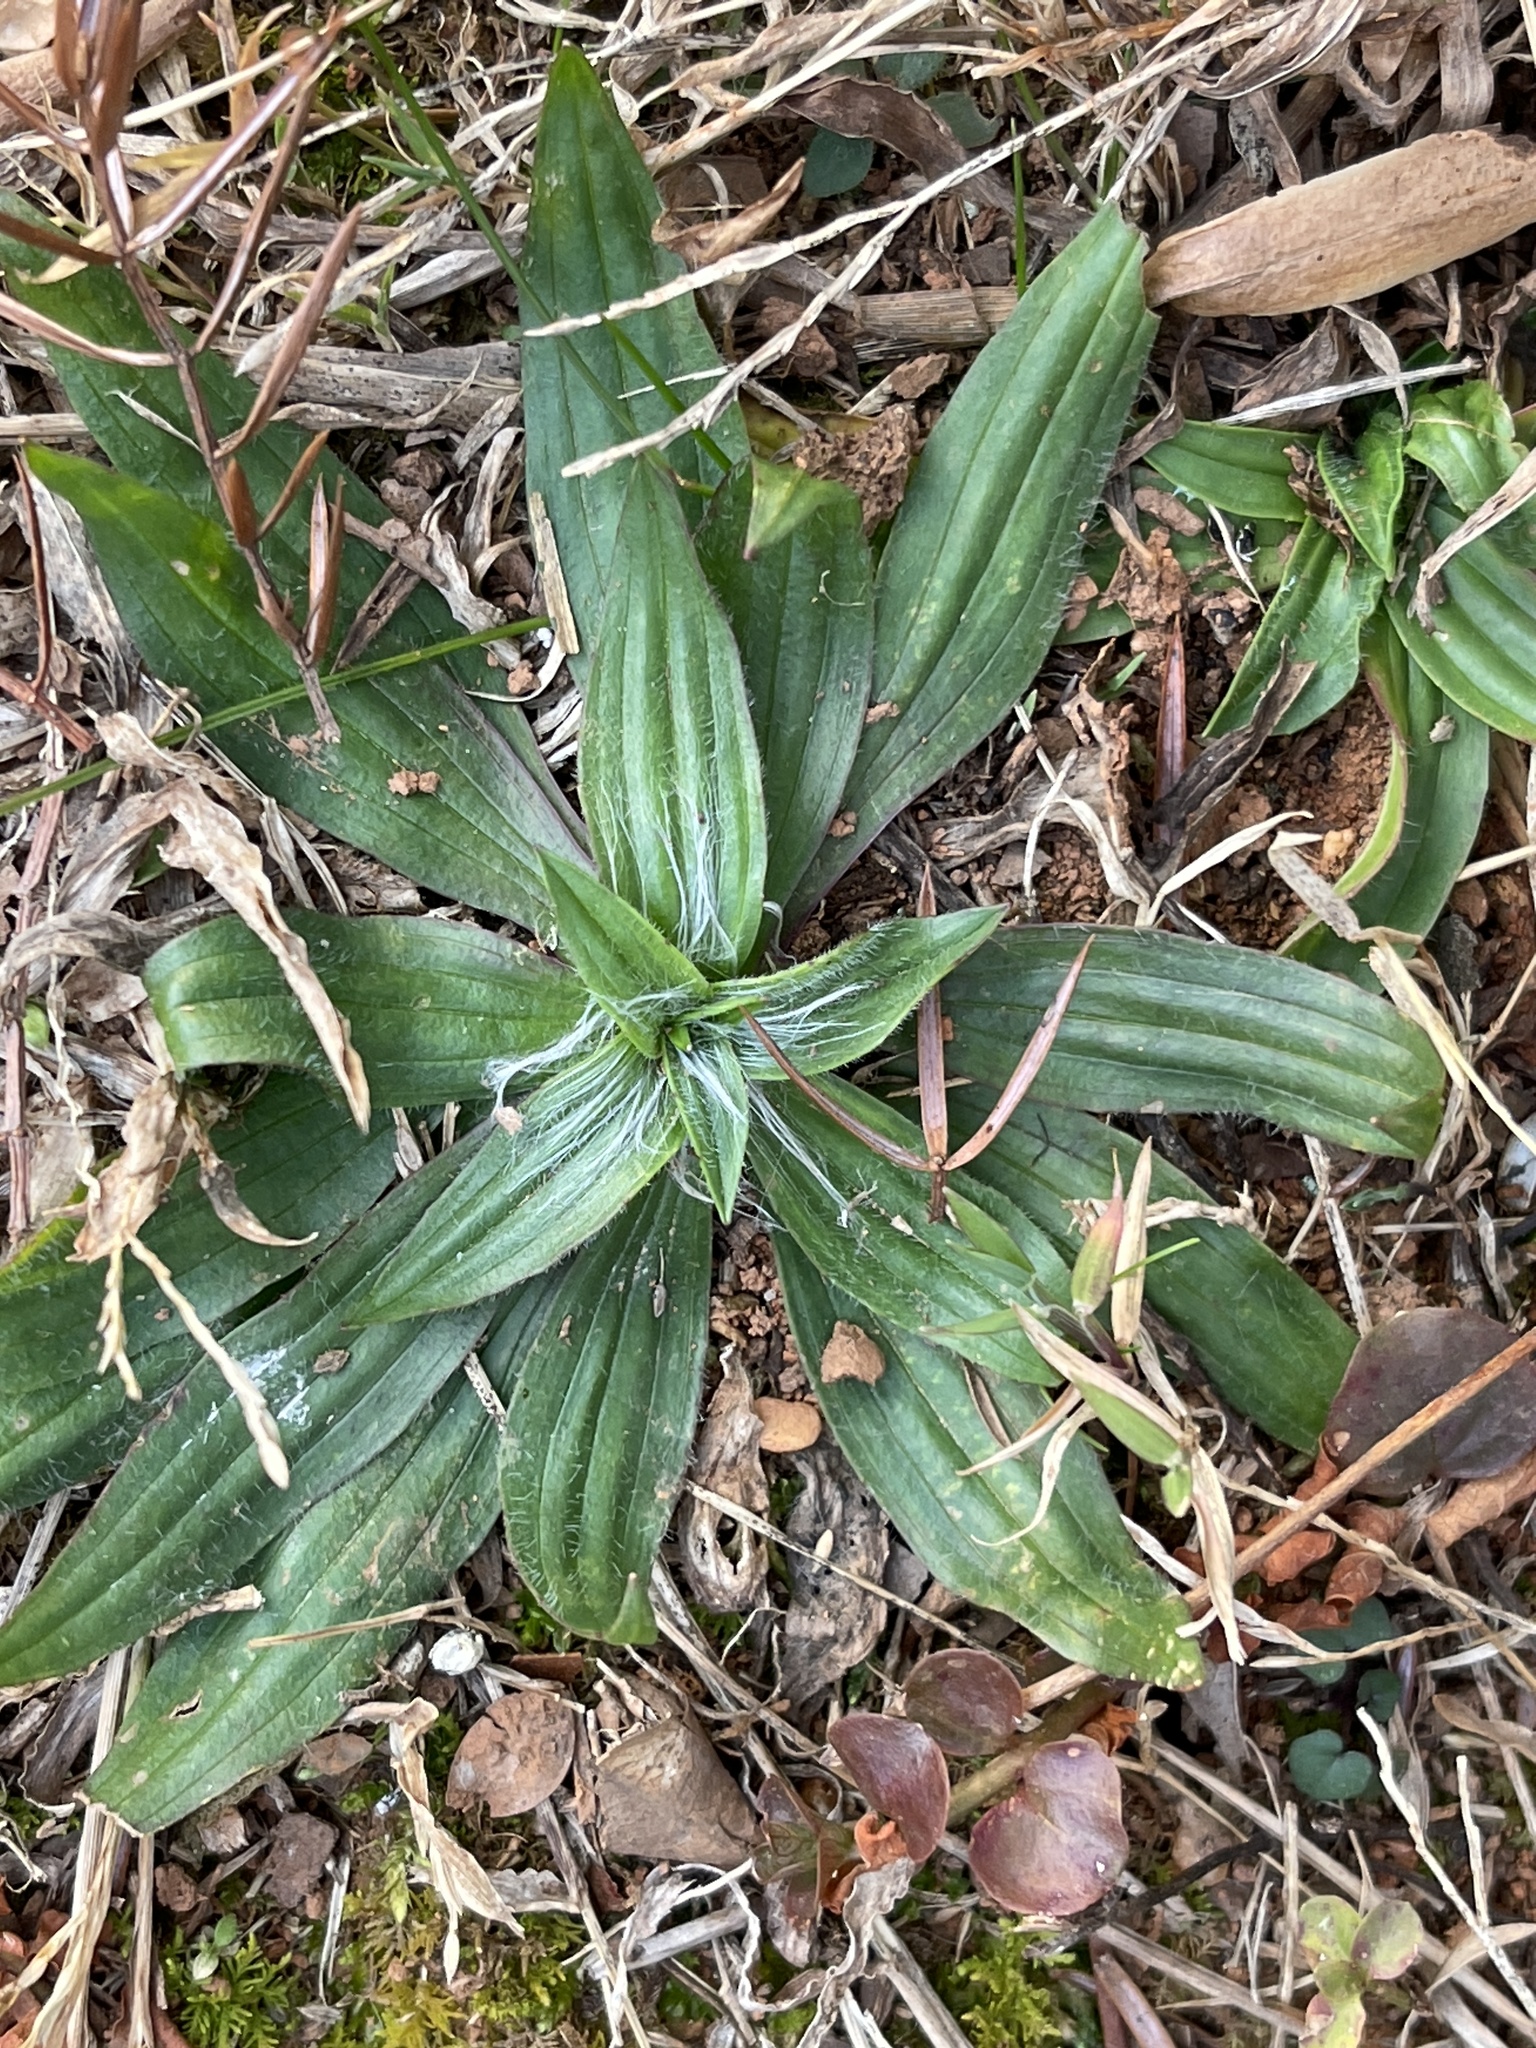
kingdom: Plantae
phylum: Tracheophyta
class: Magnoliopsida
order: Lamiales
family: Plantaginaceae
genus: Plantago
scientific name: Plantago lanceolata
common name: Ribwort plantain
